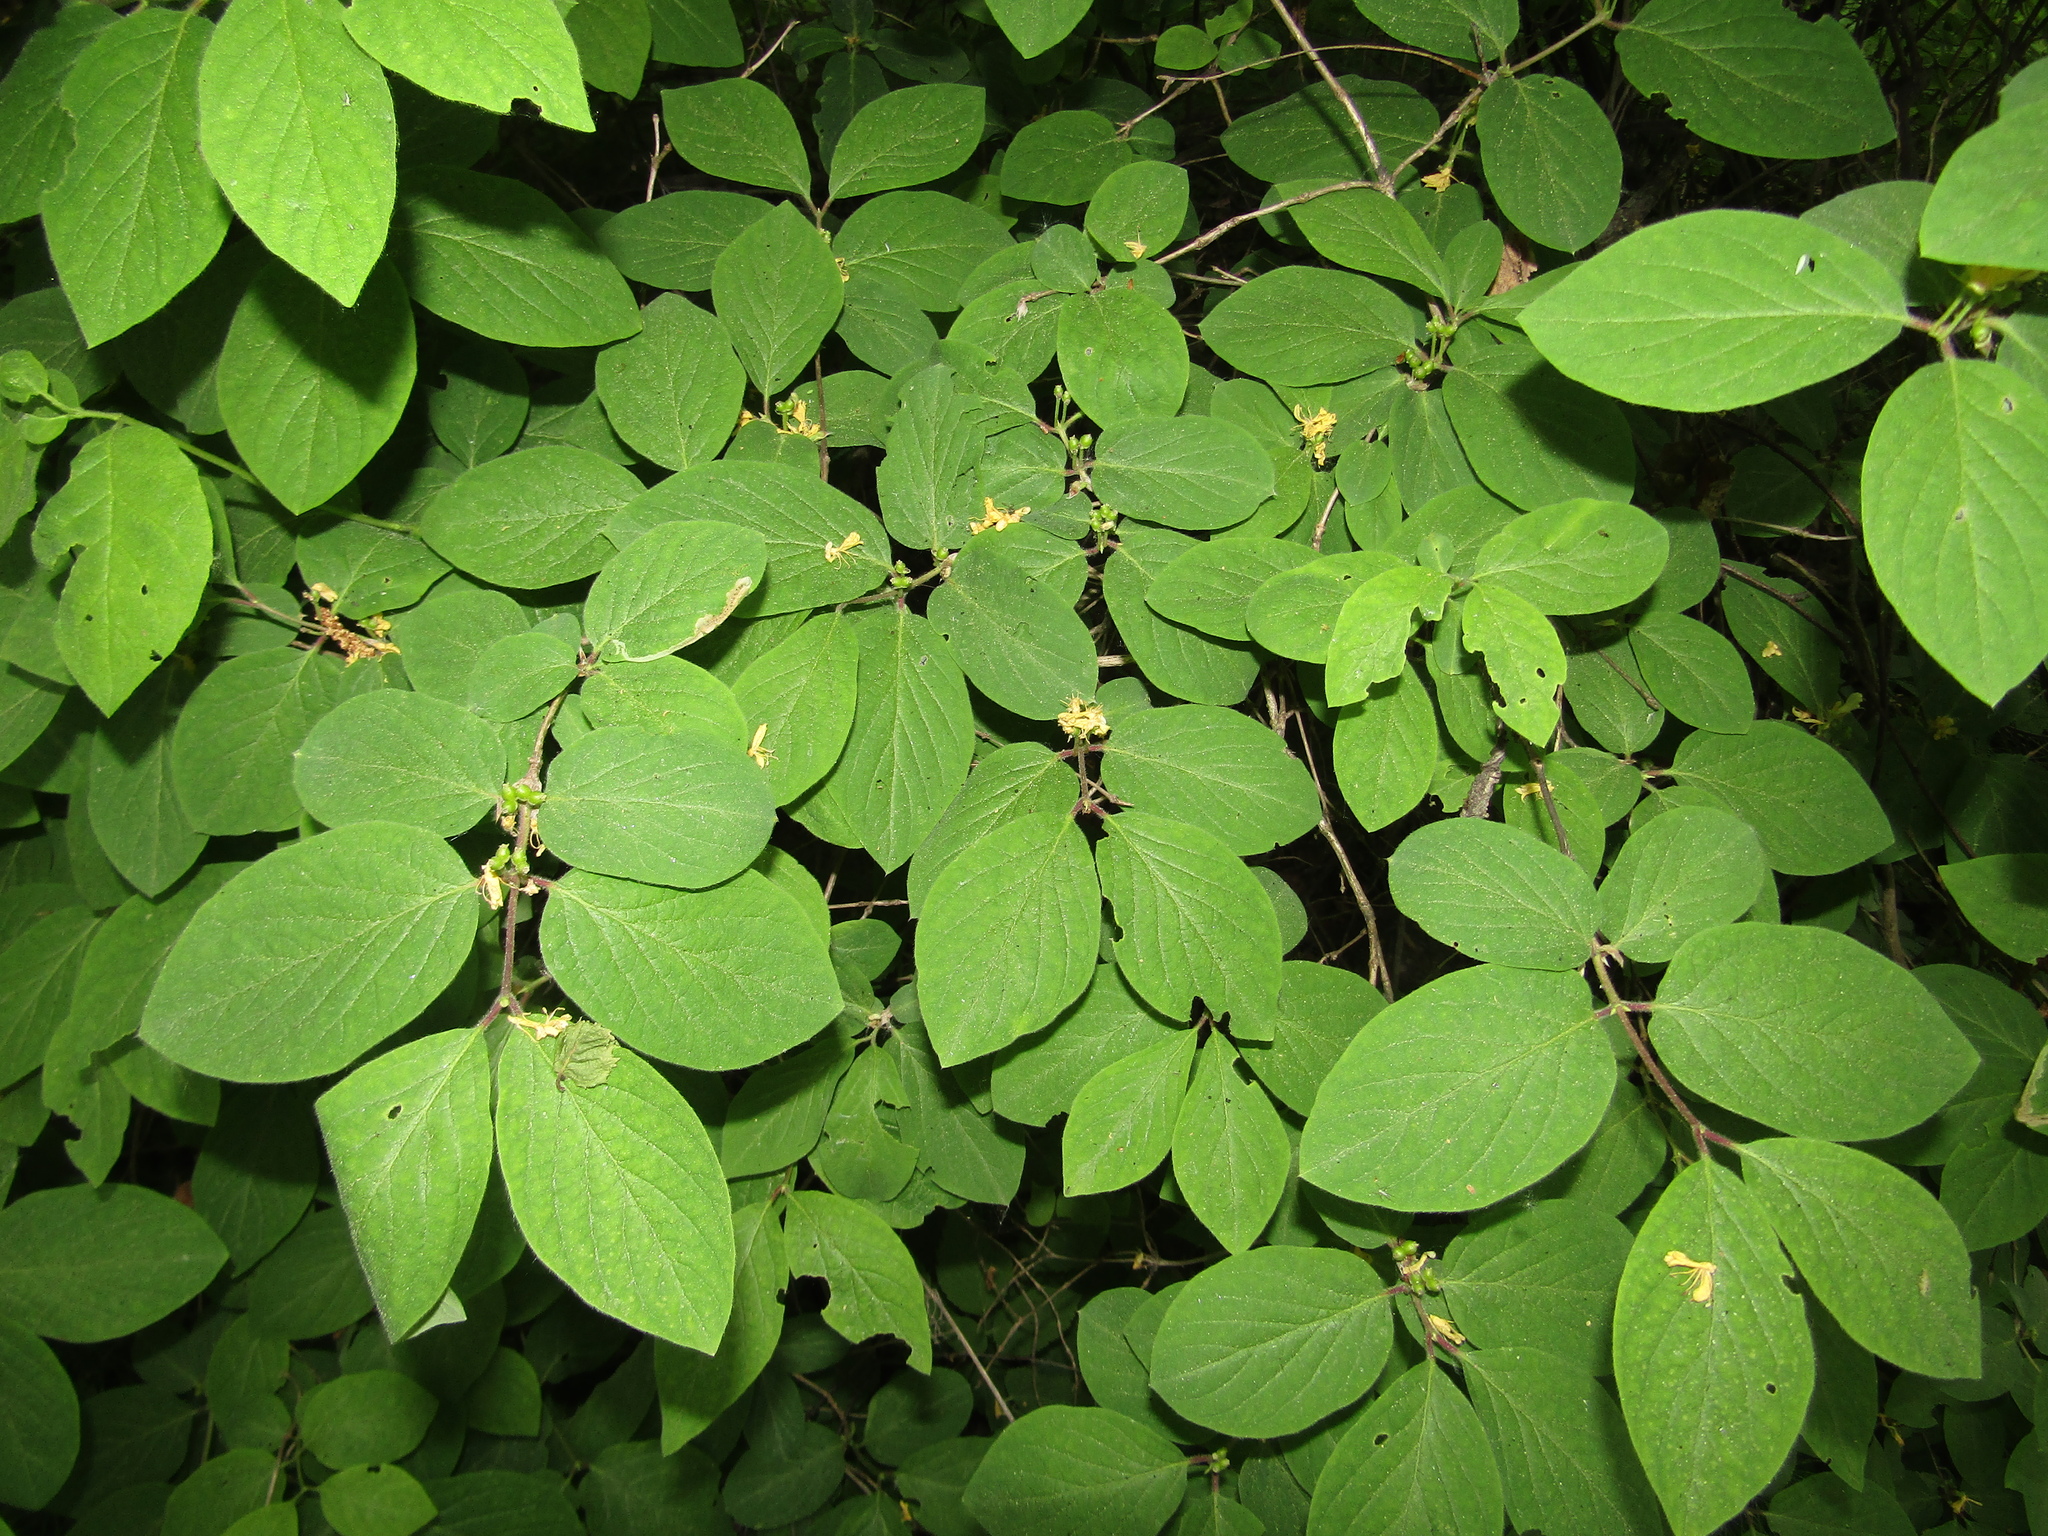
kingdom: Plantae
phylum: Tracheophyta
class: Magnoliopsida
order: Dipsacales
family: Caprifoliaceae
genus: Lonicera
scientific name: Lonicera xylosteum
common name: Fly honeysuckle
